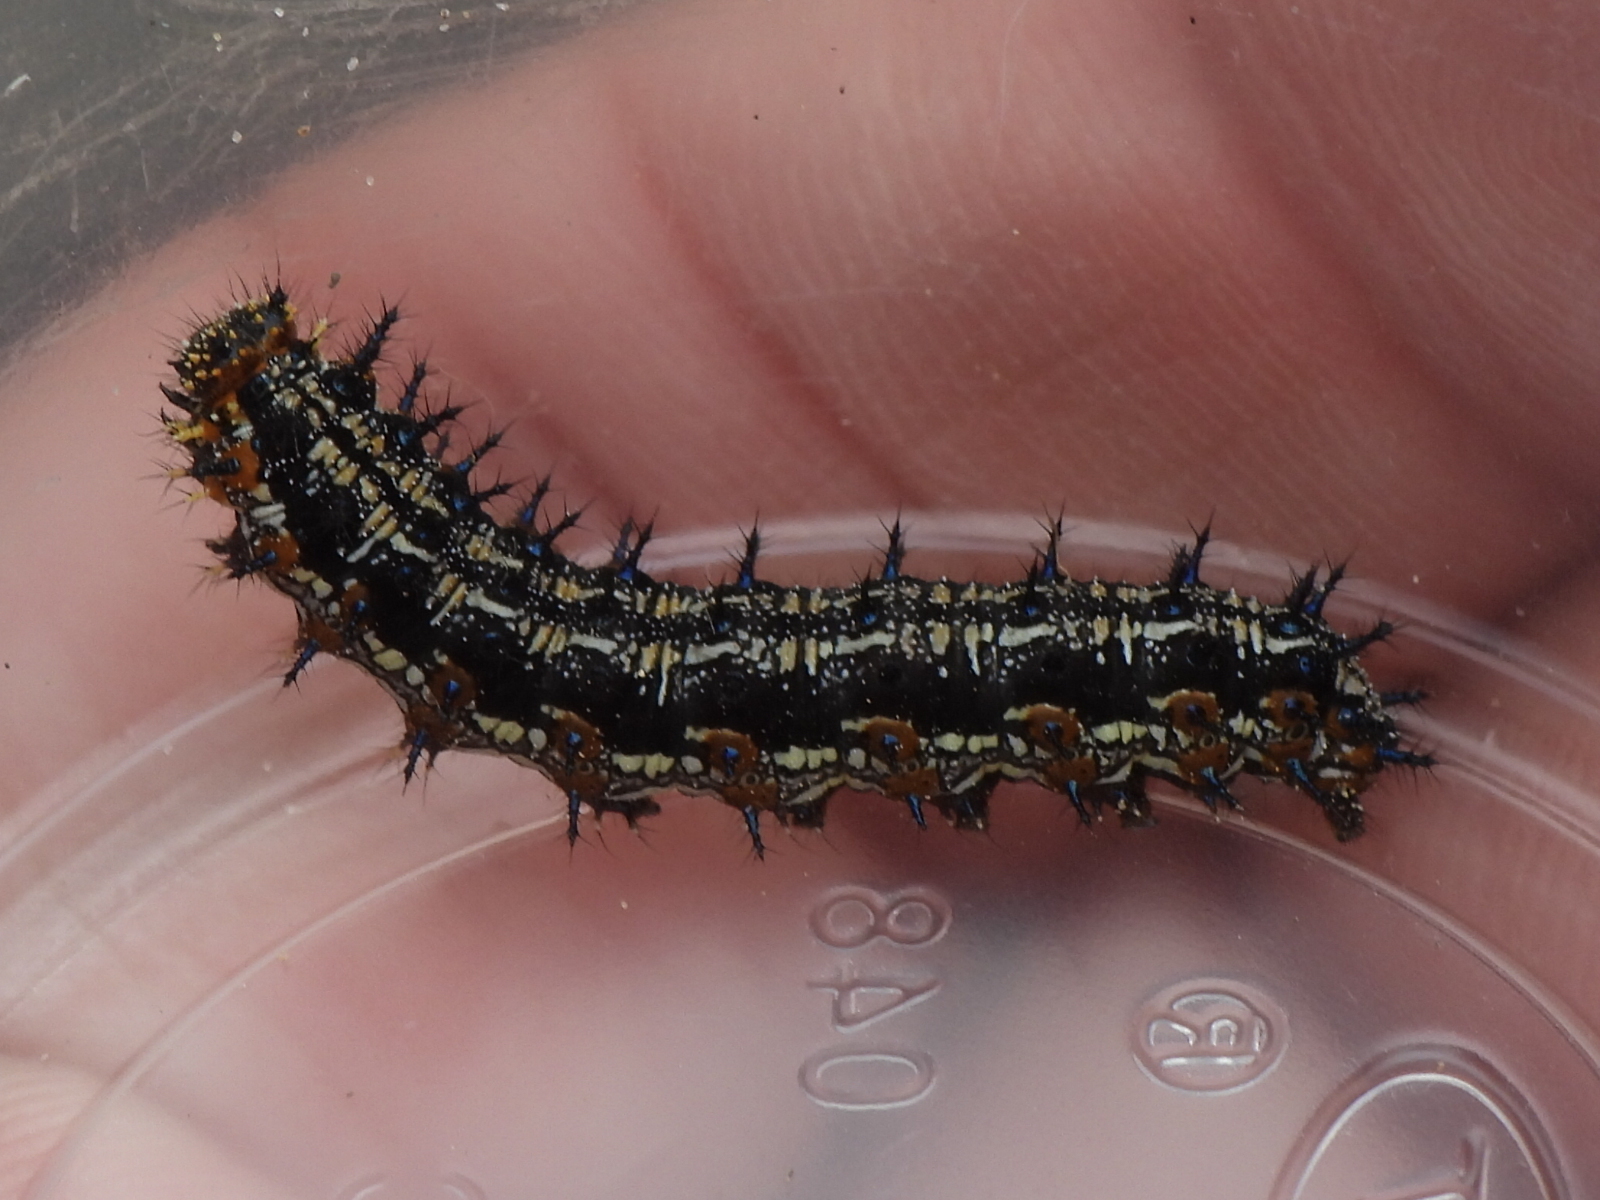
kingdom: Animalia
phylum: Arthropoda
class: Insecta
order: Lepidoptera
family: Nymphalidae
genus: Junonia
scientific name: Junonia coenia
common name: Common buckeye
